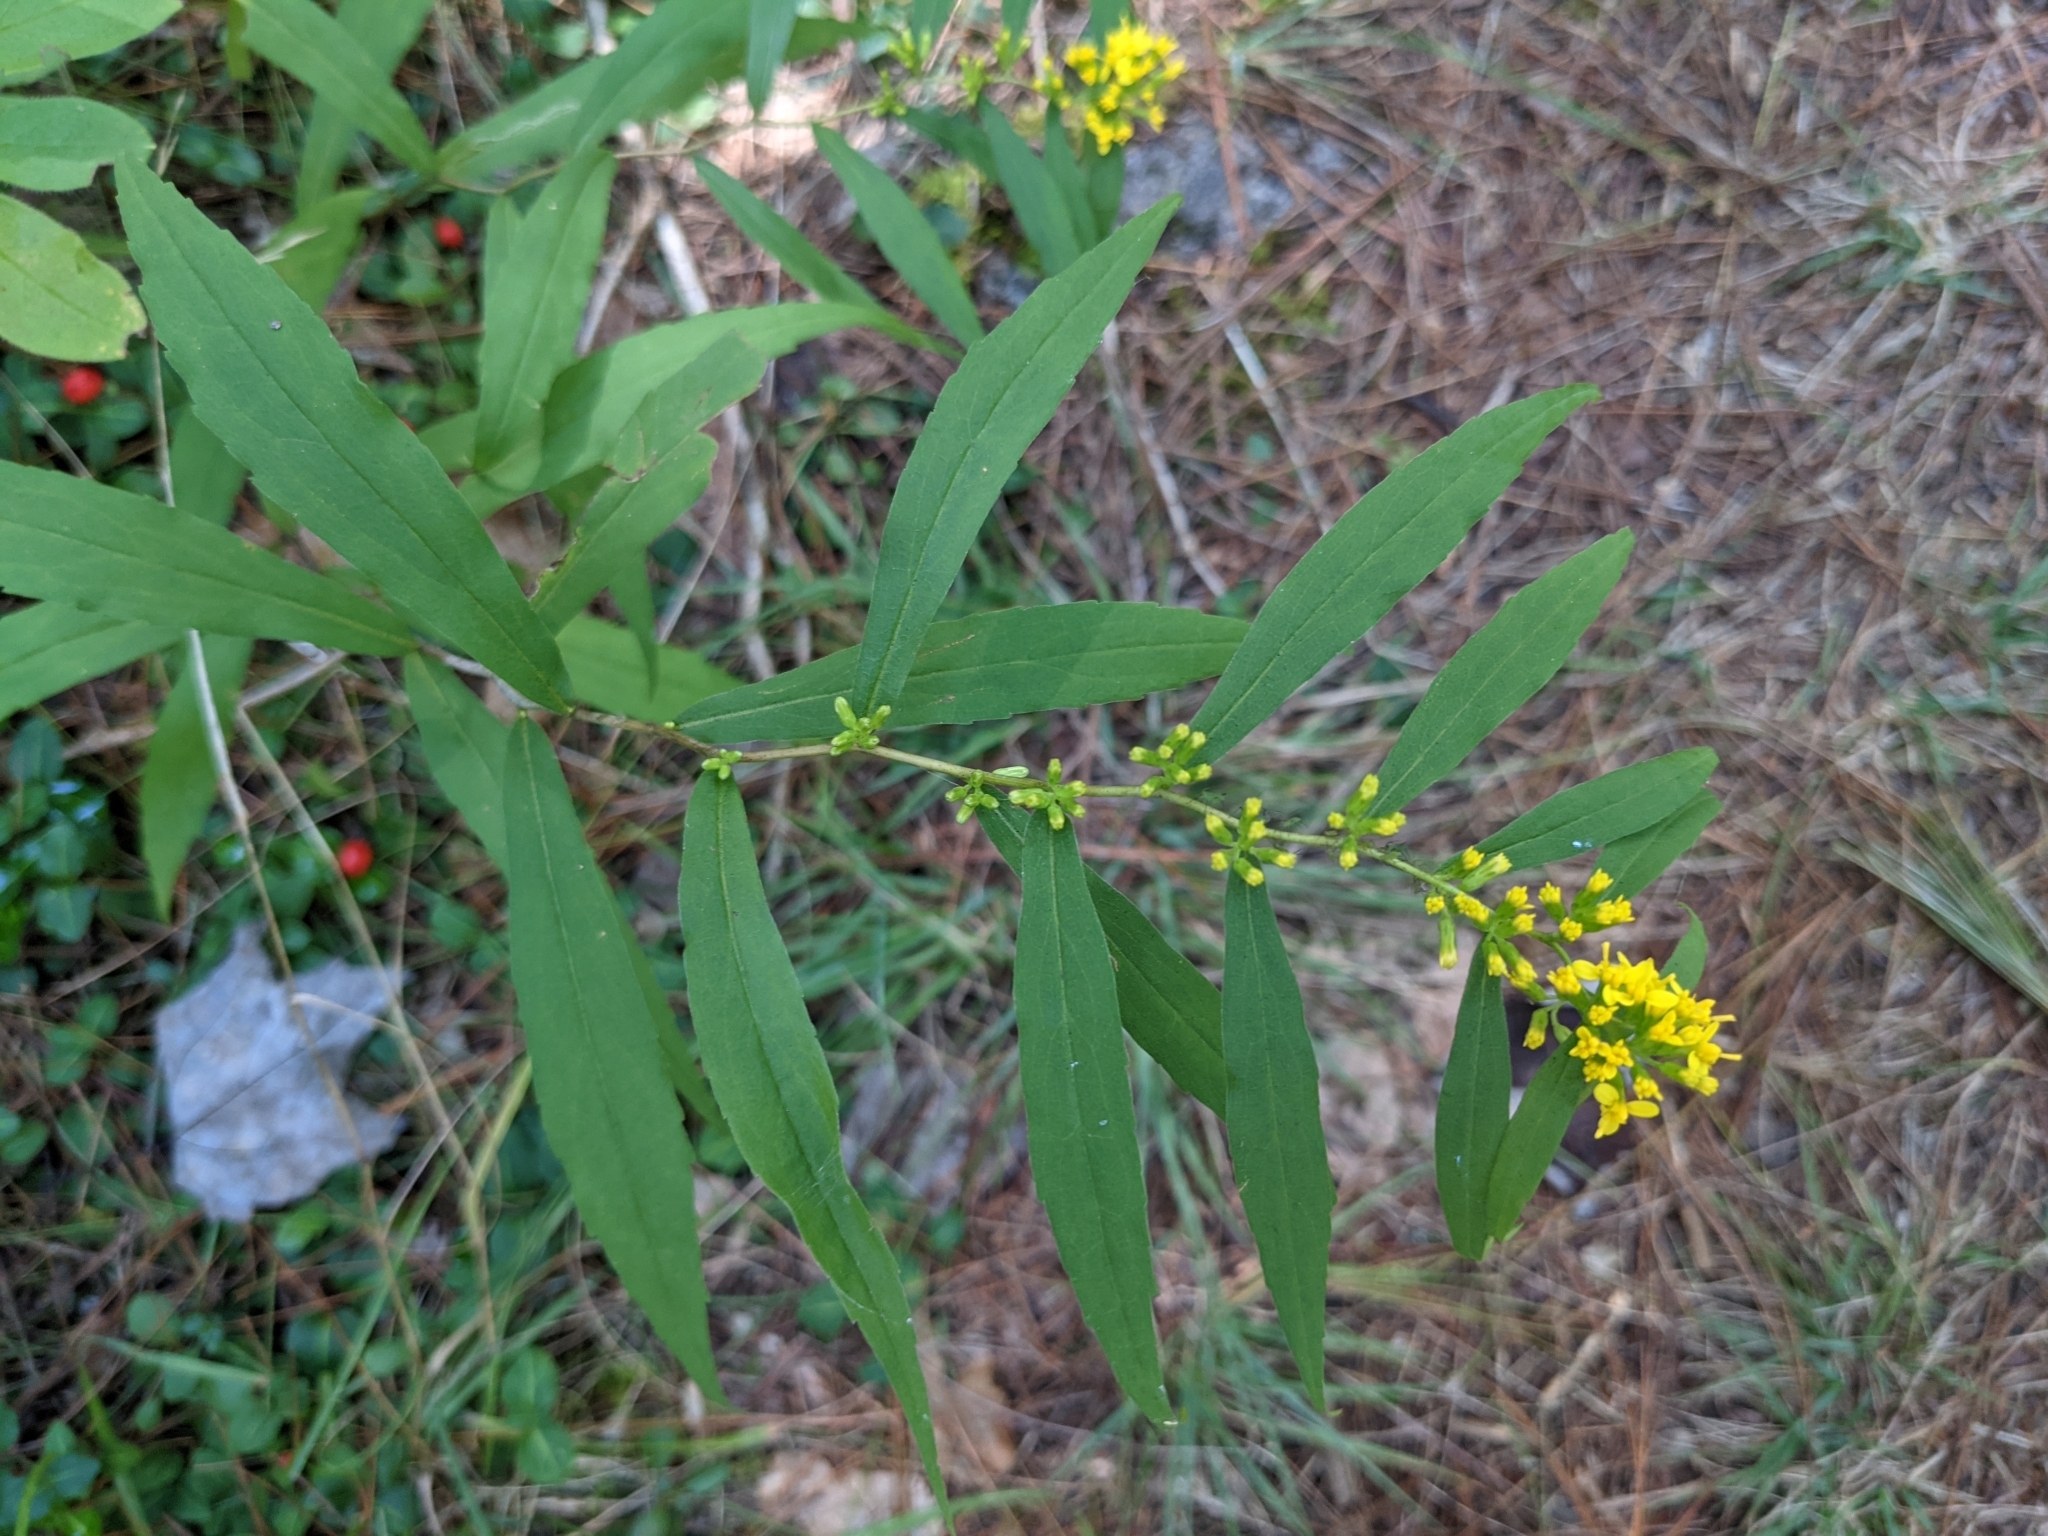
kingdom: Plantae
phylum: Tracheophyta
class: Magnoliopsida
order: Asterales
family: Asteraceae
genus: Solidago
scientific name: Solidago caesia
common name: Woodland goldenrod
